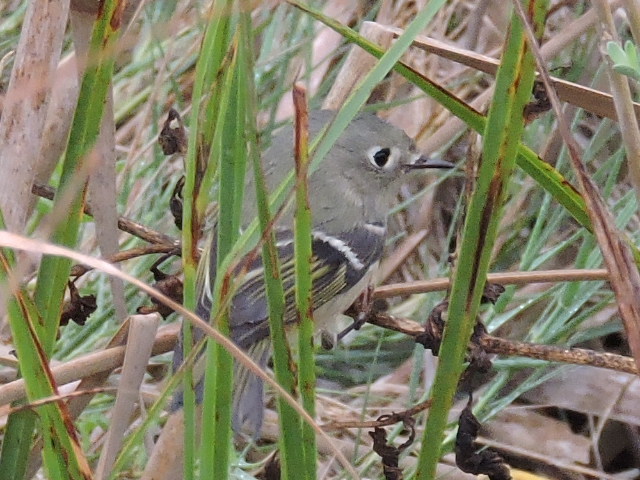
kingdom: Animalia
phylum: Chordata
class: Aves
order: Passeriformes
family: Regulidae
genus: Regulus
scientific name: Regulus calendula
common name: Ruby-crowned kinglet
